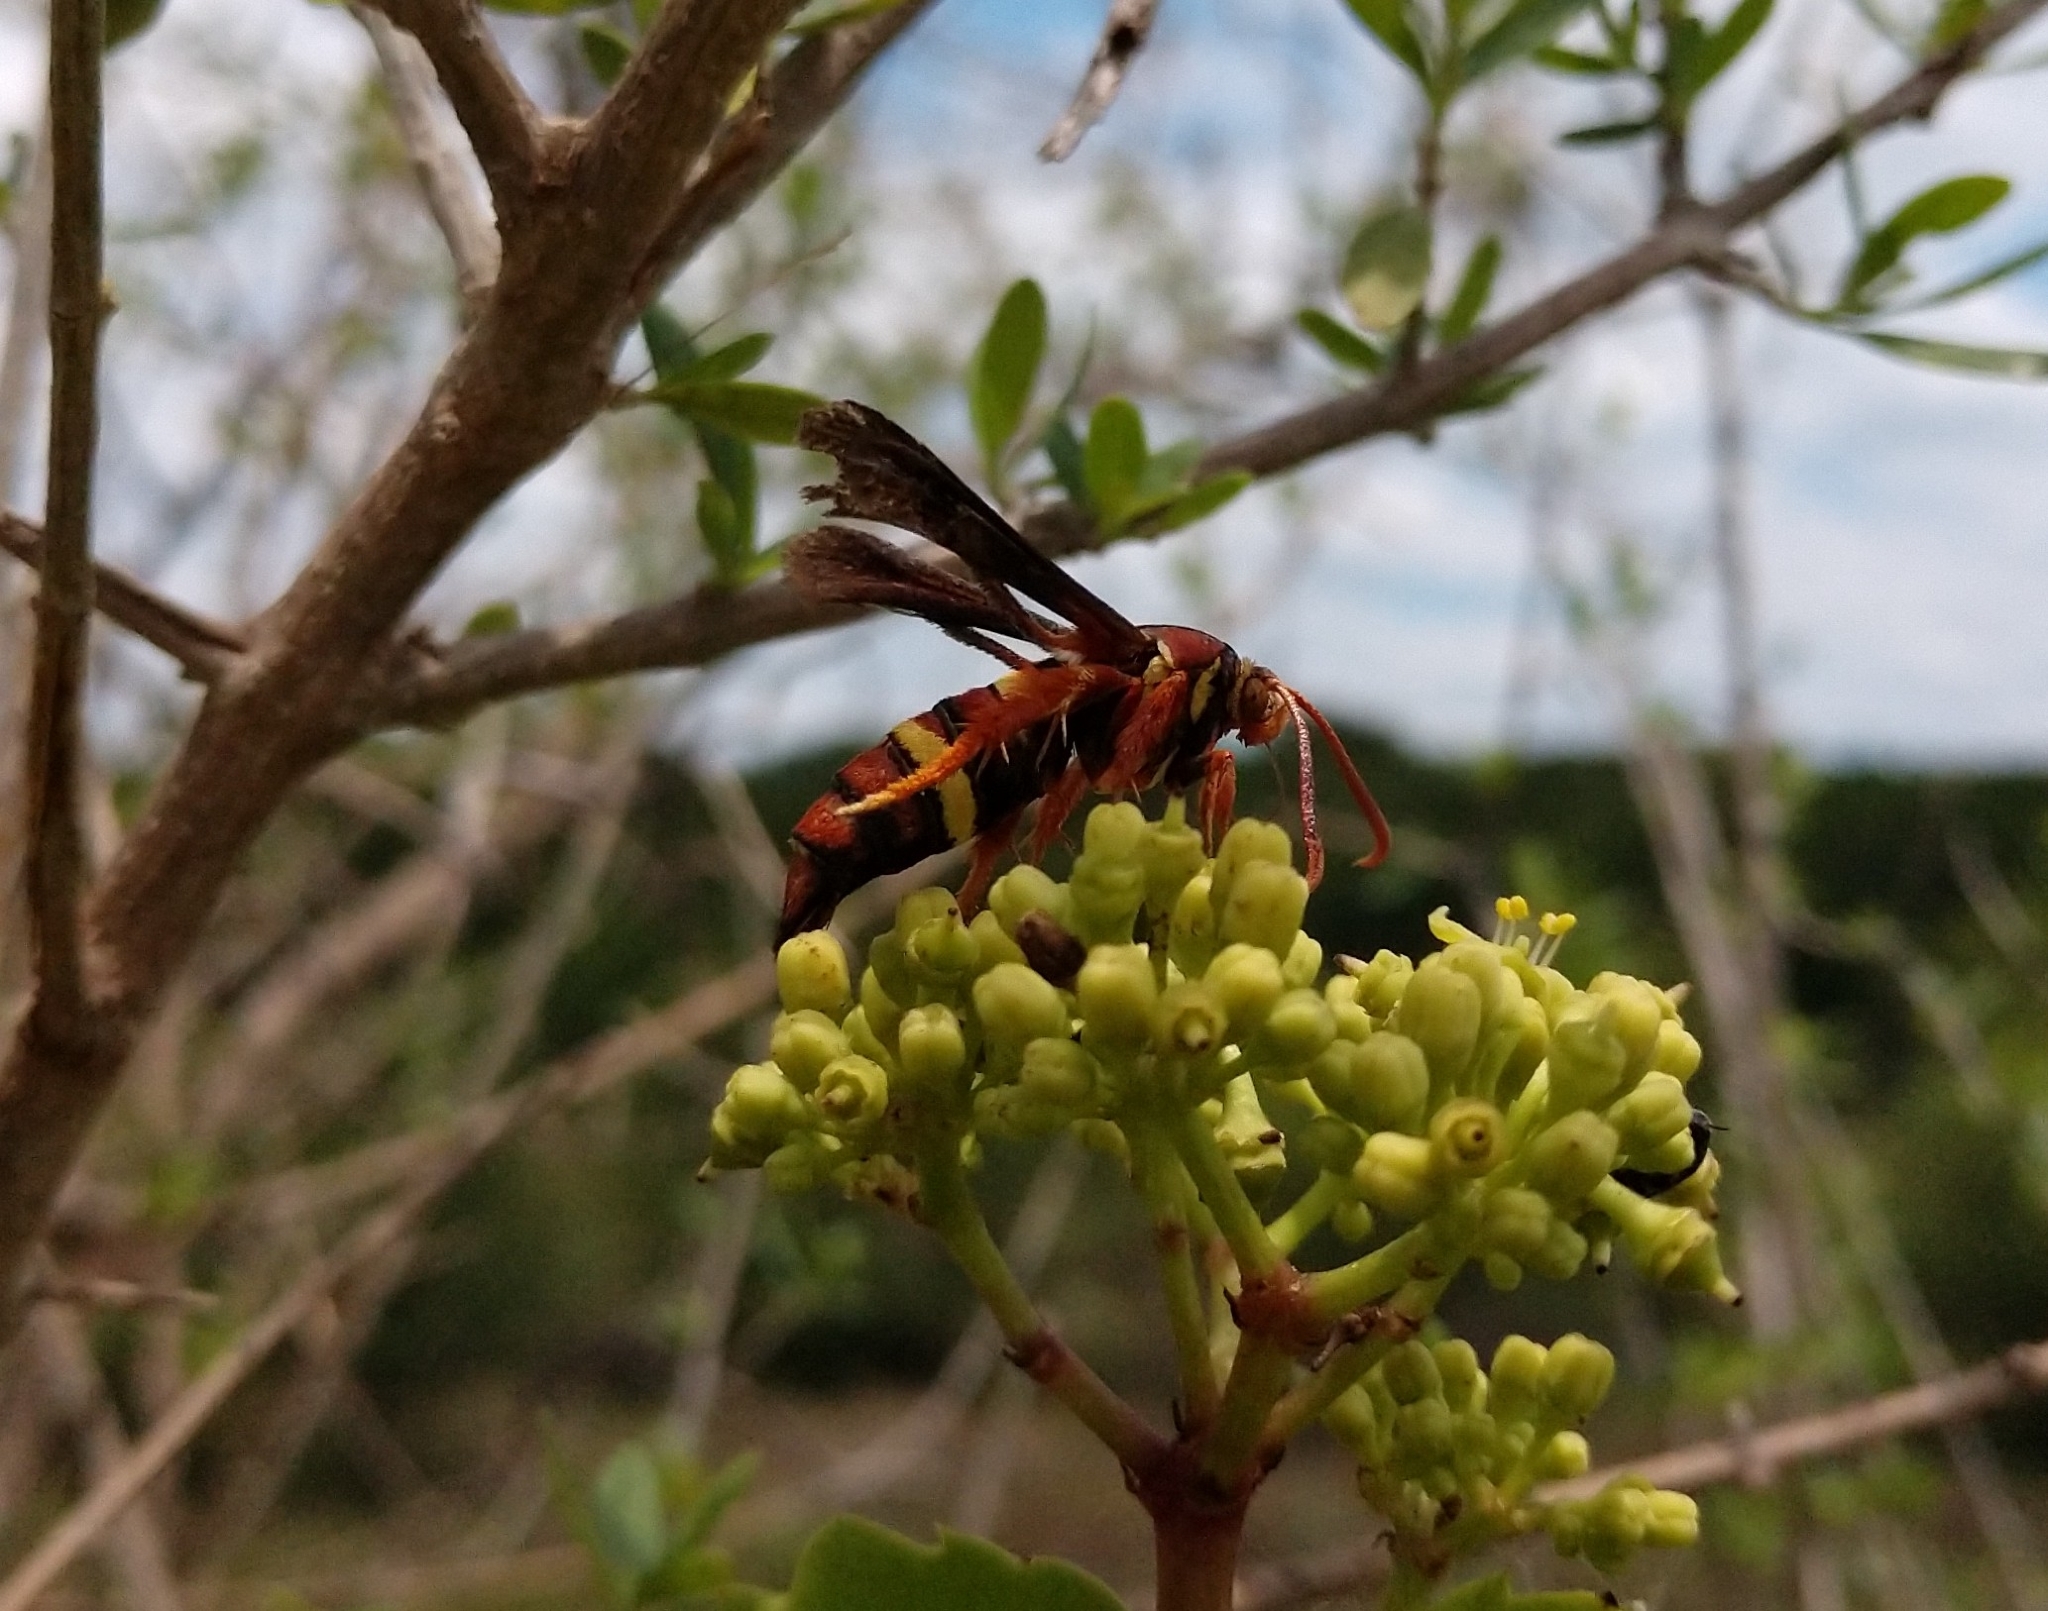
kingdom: Animalia
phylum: Arthropoda
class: Insecta
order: Lepidoptera
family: Sesiidae
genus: Vitacea
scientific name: Vitacea admirandus
